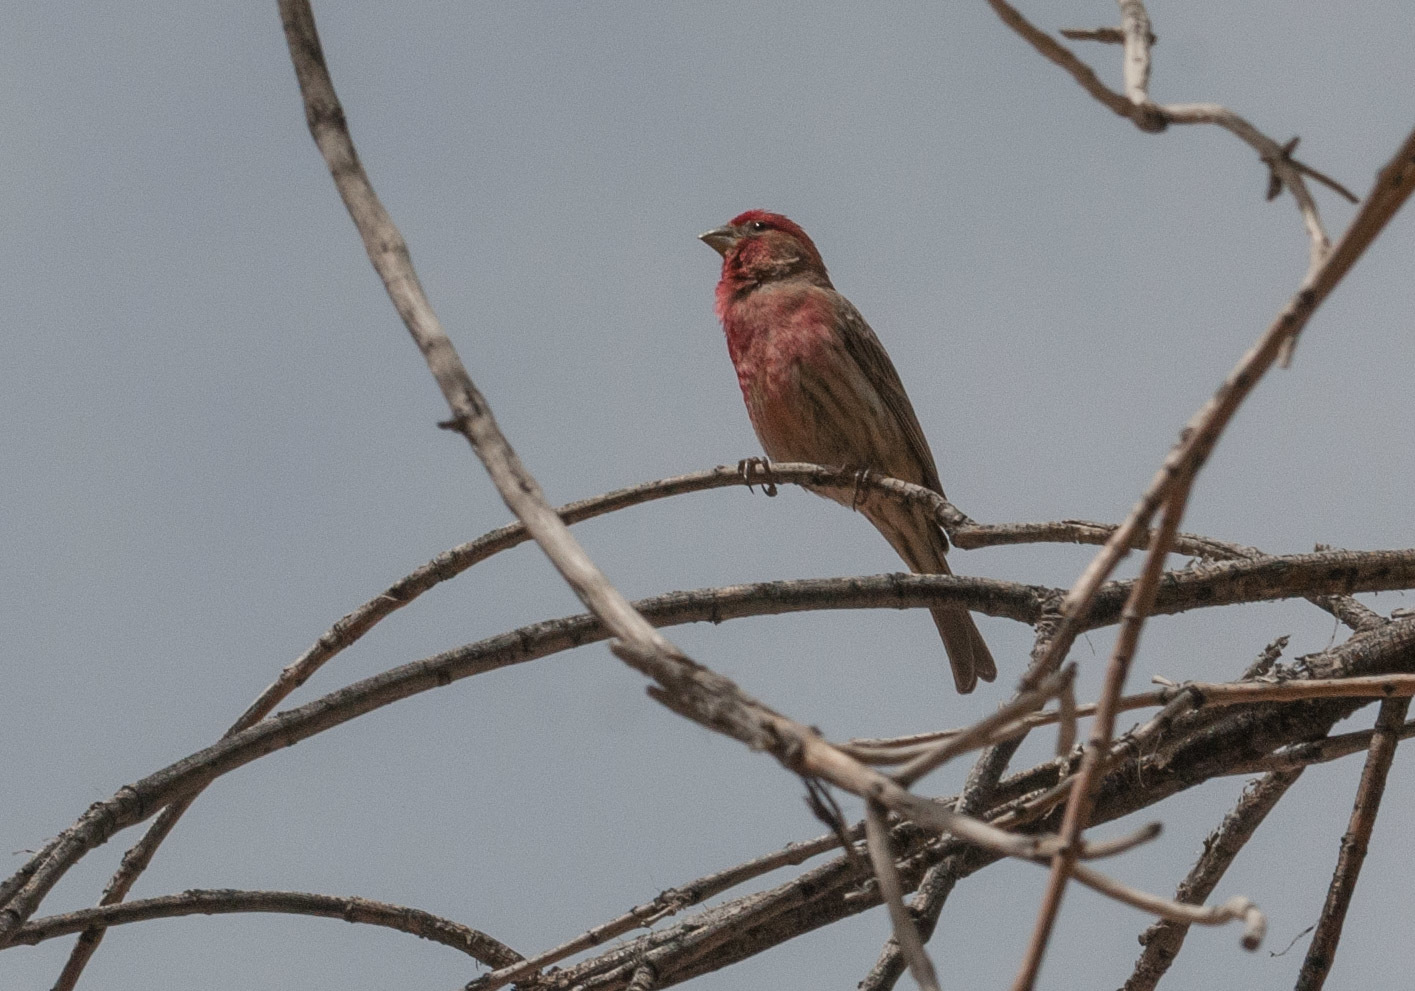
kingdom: Animalia
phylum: Chordata
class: Aves
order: Passeriformes
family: Fringillidae
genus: Haemorhous
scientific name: Haemorhous mexicanus
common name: House finch
